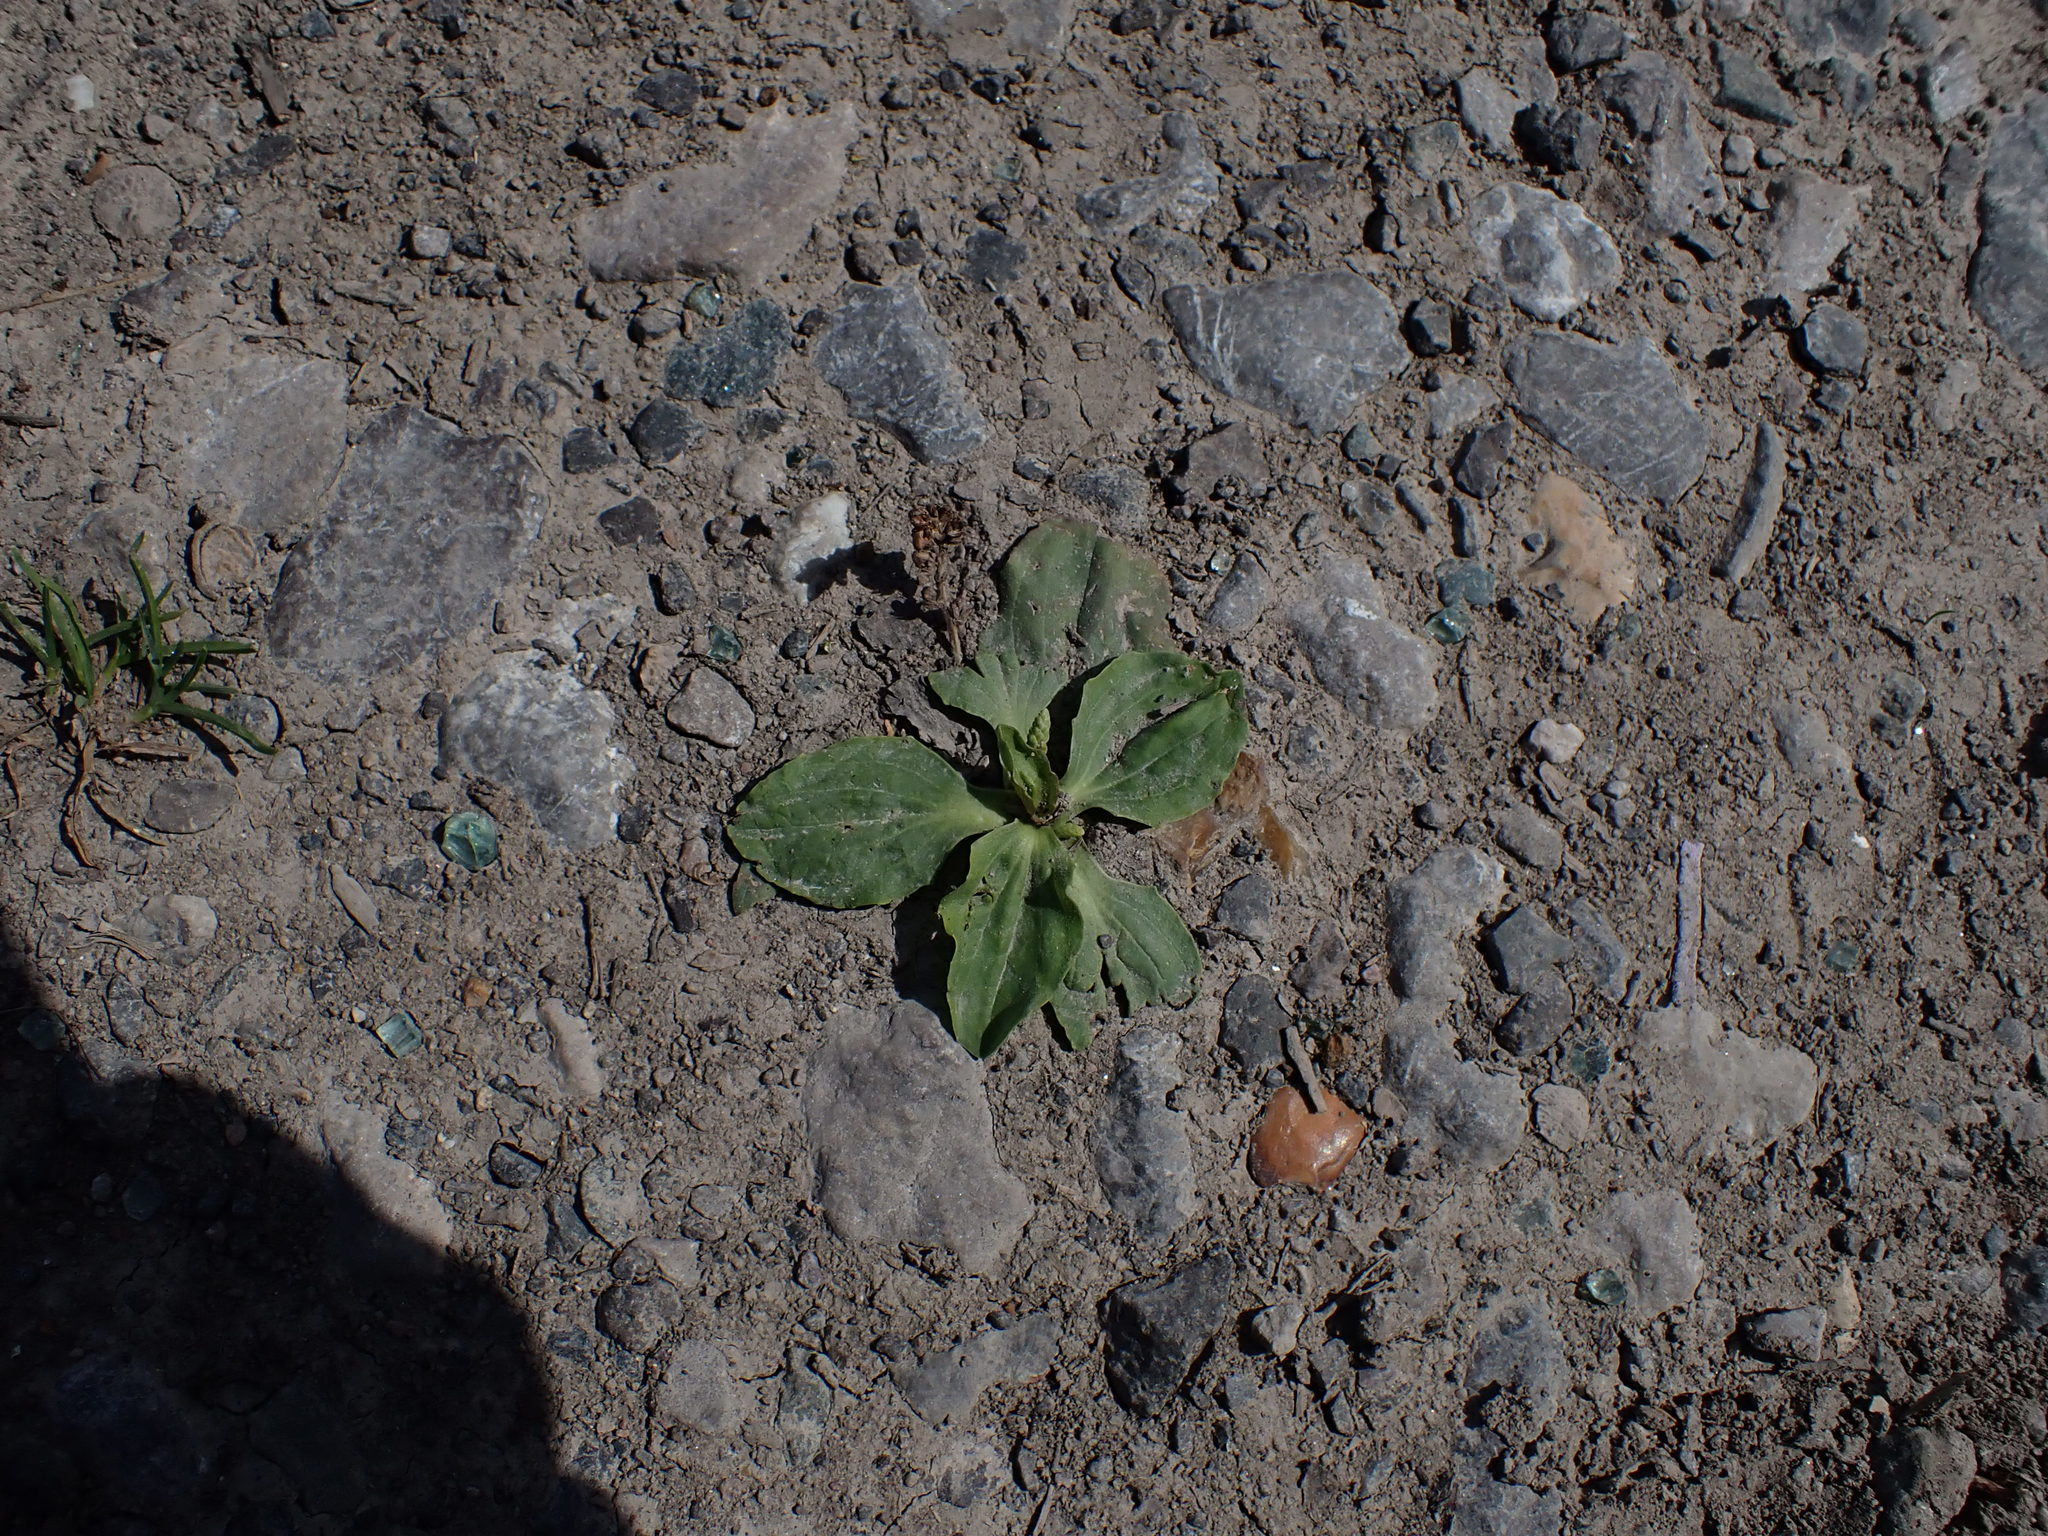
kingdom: Plantae
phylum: Tracheophyta
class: Magnoliopsida
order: Lamiales
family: Plantaginaceae
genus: Plantago
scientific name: Plantago major
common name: Common plantain
